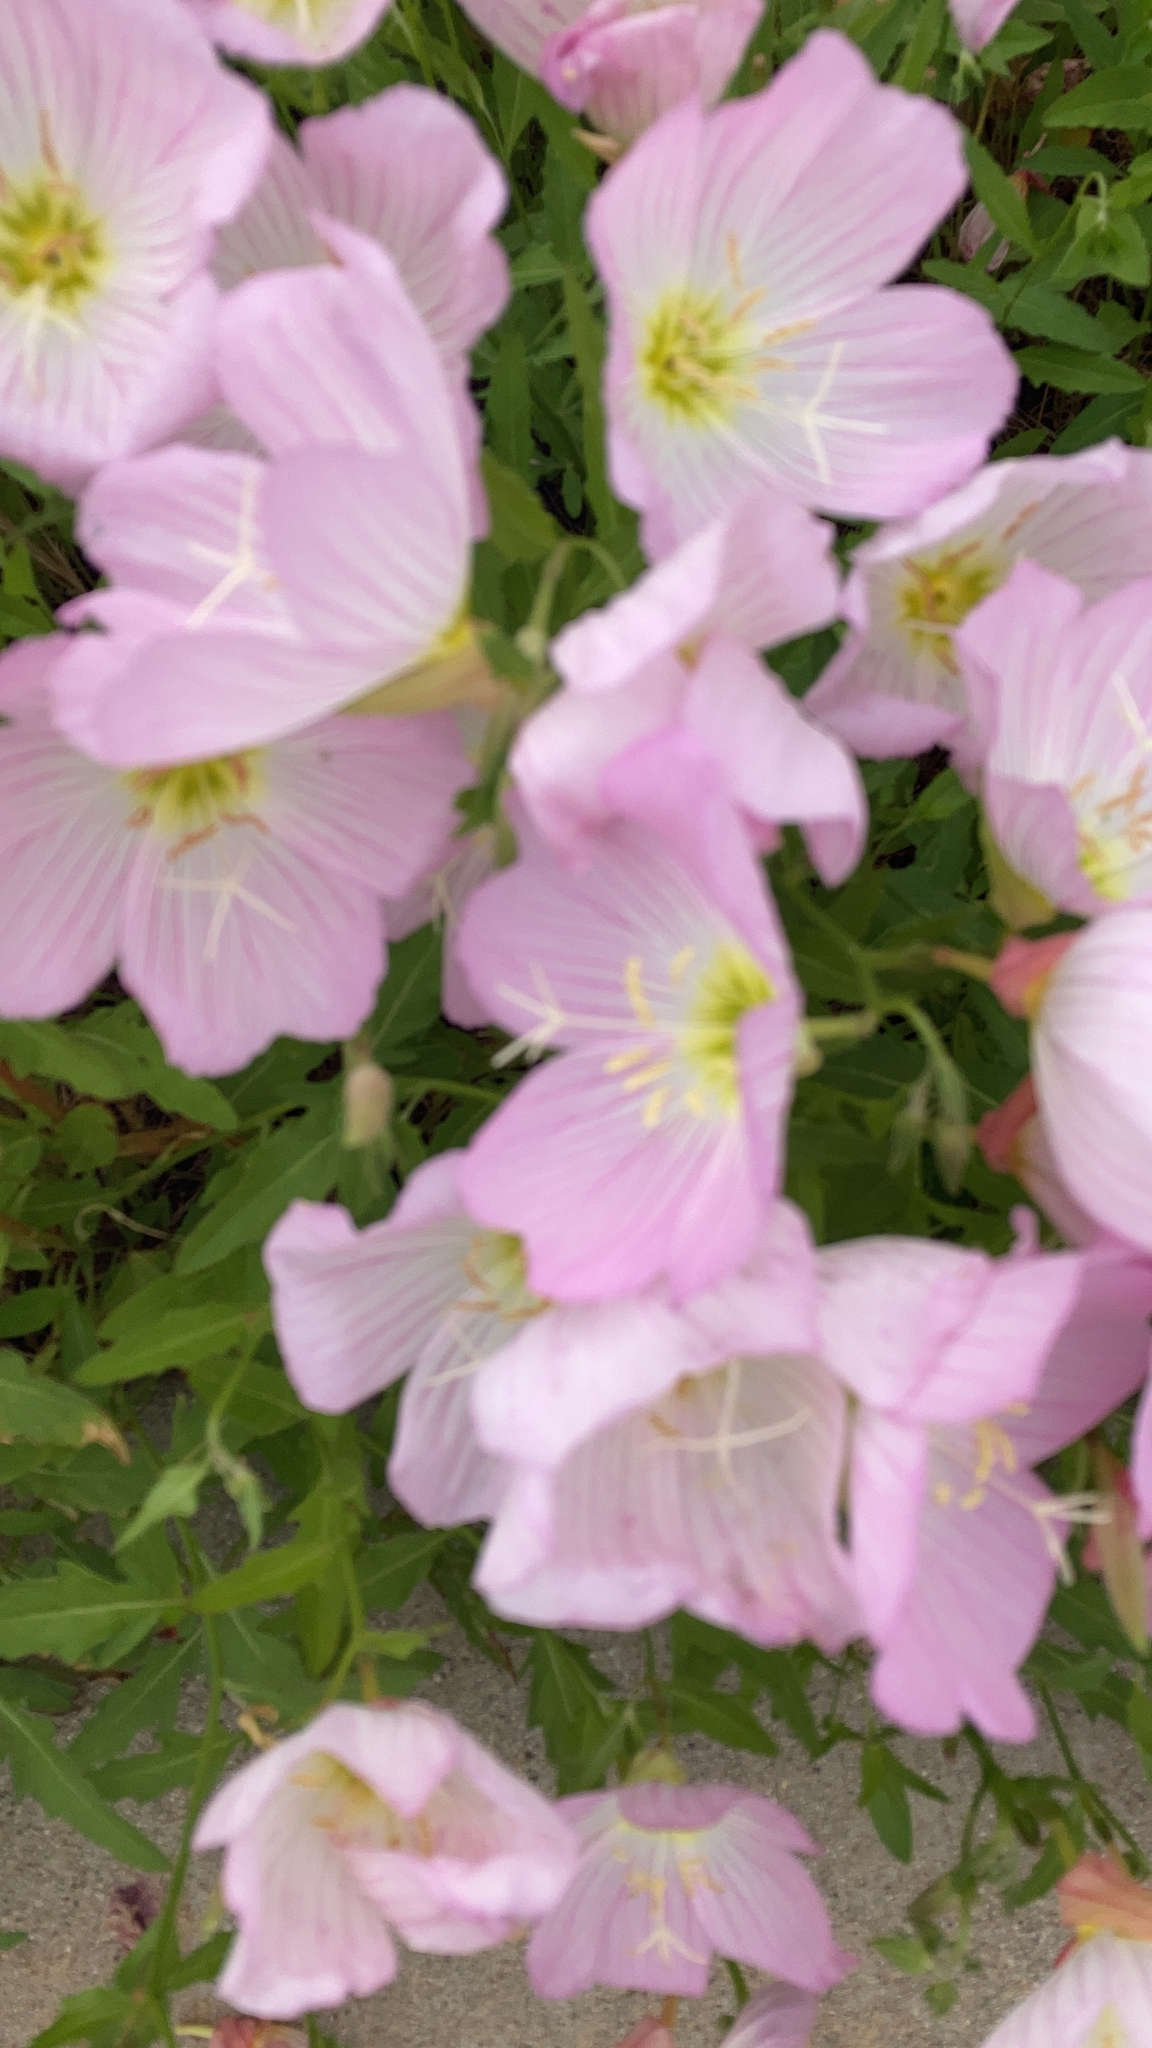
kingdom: Plantae
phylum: Tracheophyta
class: Magnoliopsida
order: Myrtales
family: Onagraceae
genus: Oenothera
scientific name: Oenothera speciosa
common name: White evening-primrose
